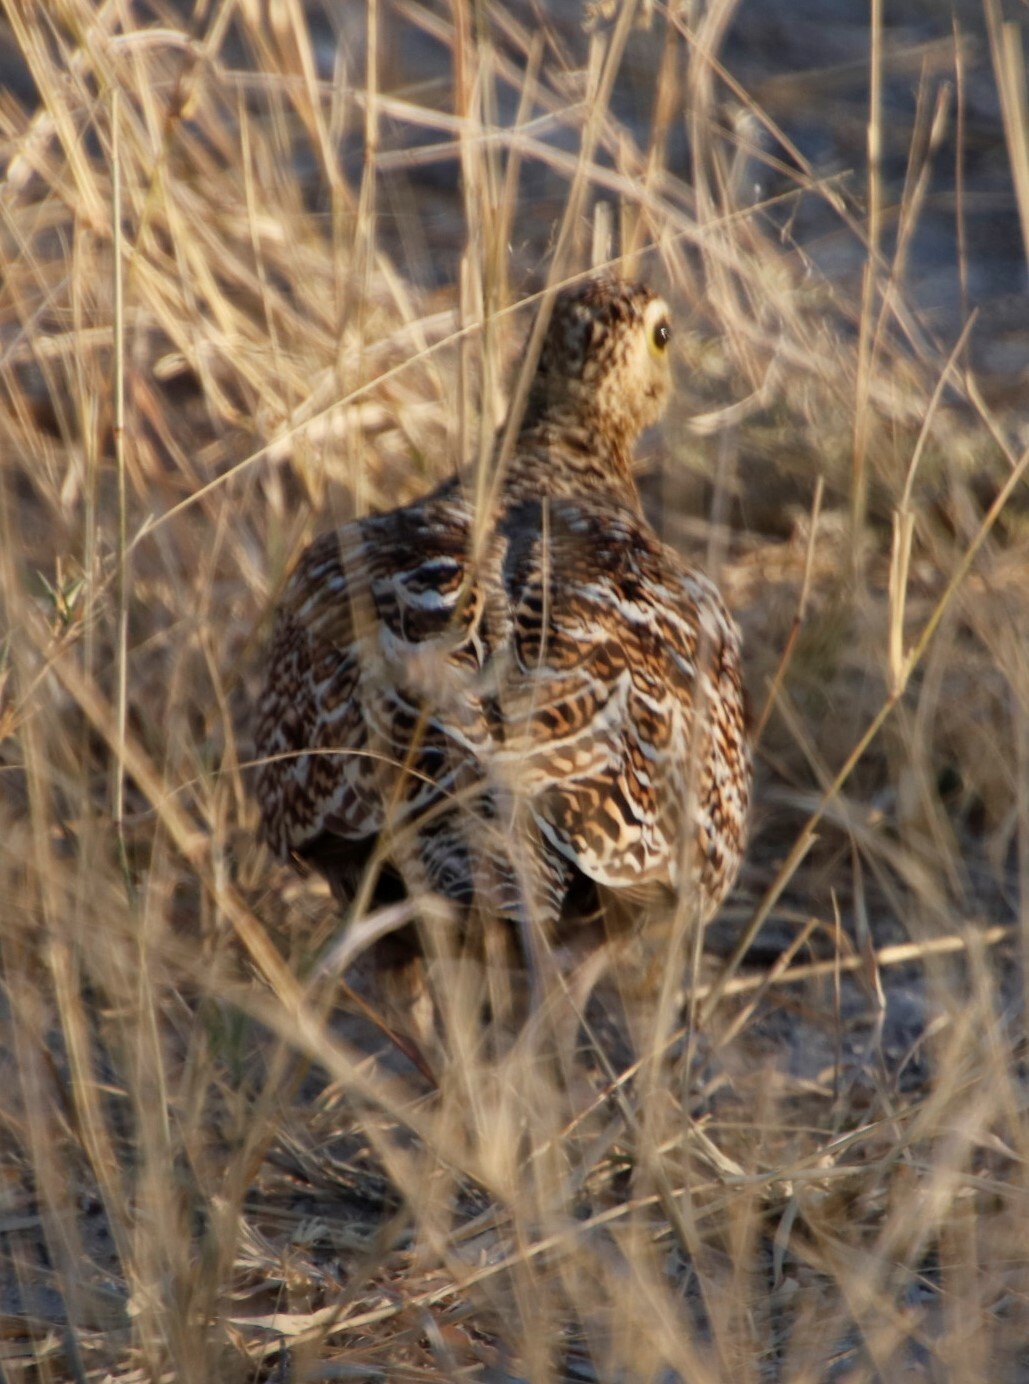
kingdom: Animalia
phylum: Chordata
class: Aves
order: Pteroclidiformes
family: Pteroclididae
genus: Pterocles
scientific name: Pterocles bicinctus
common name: Double-banded sandgrouse
